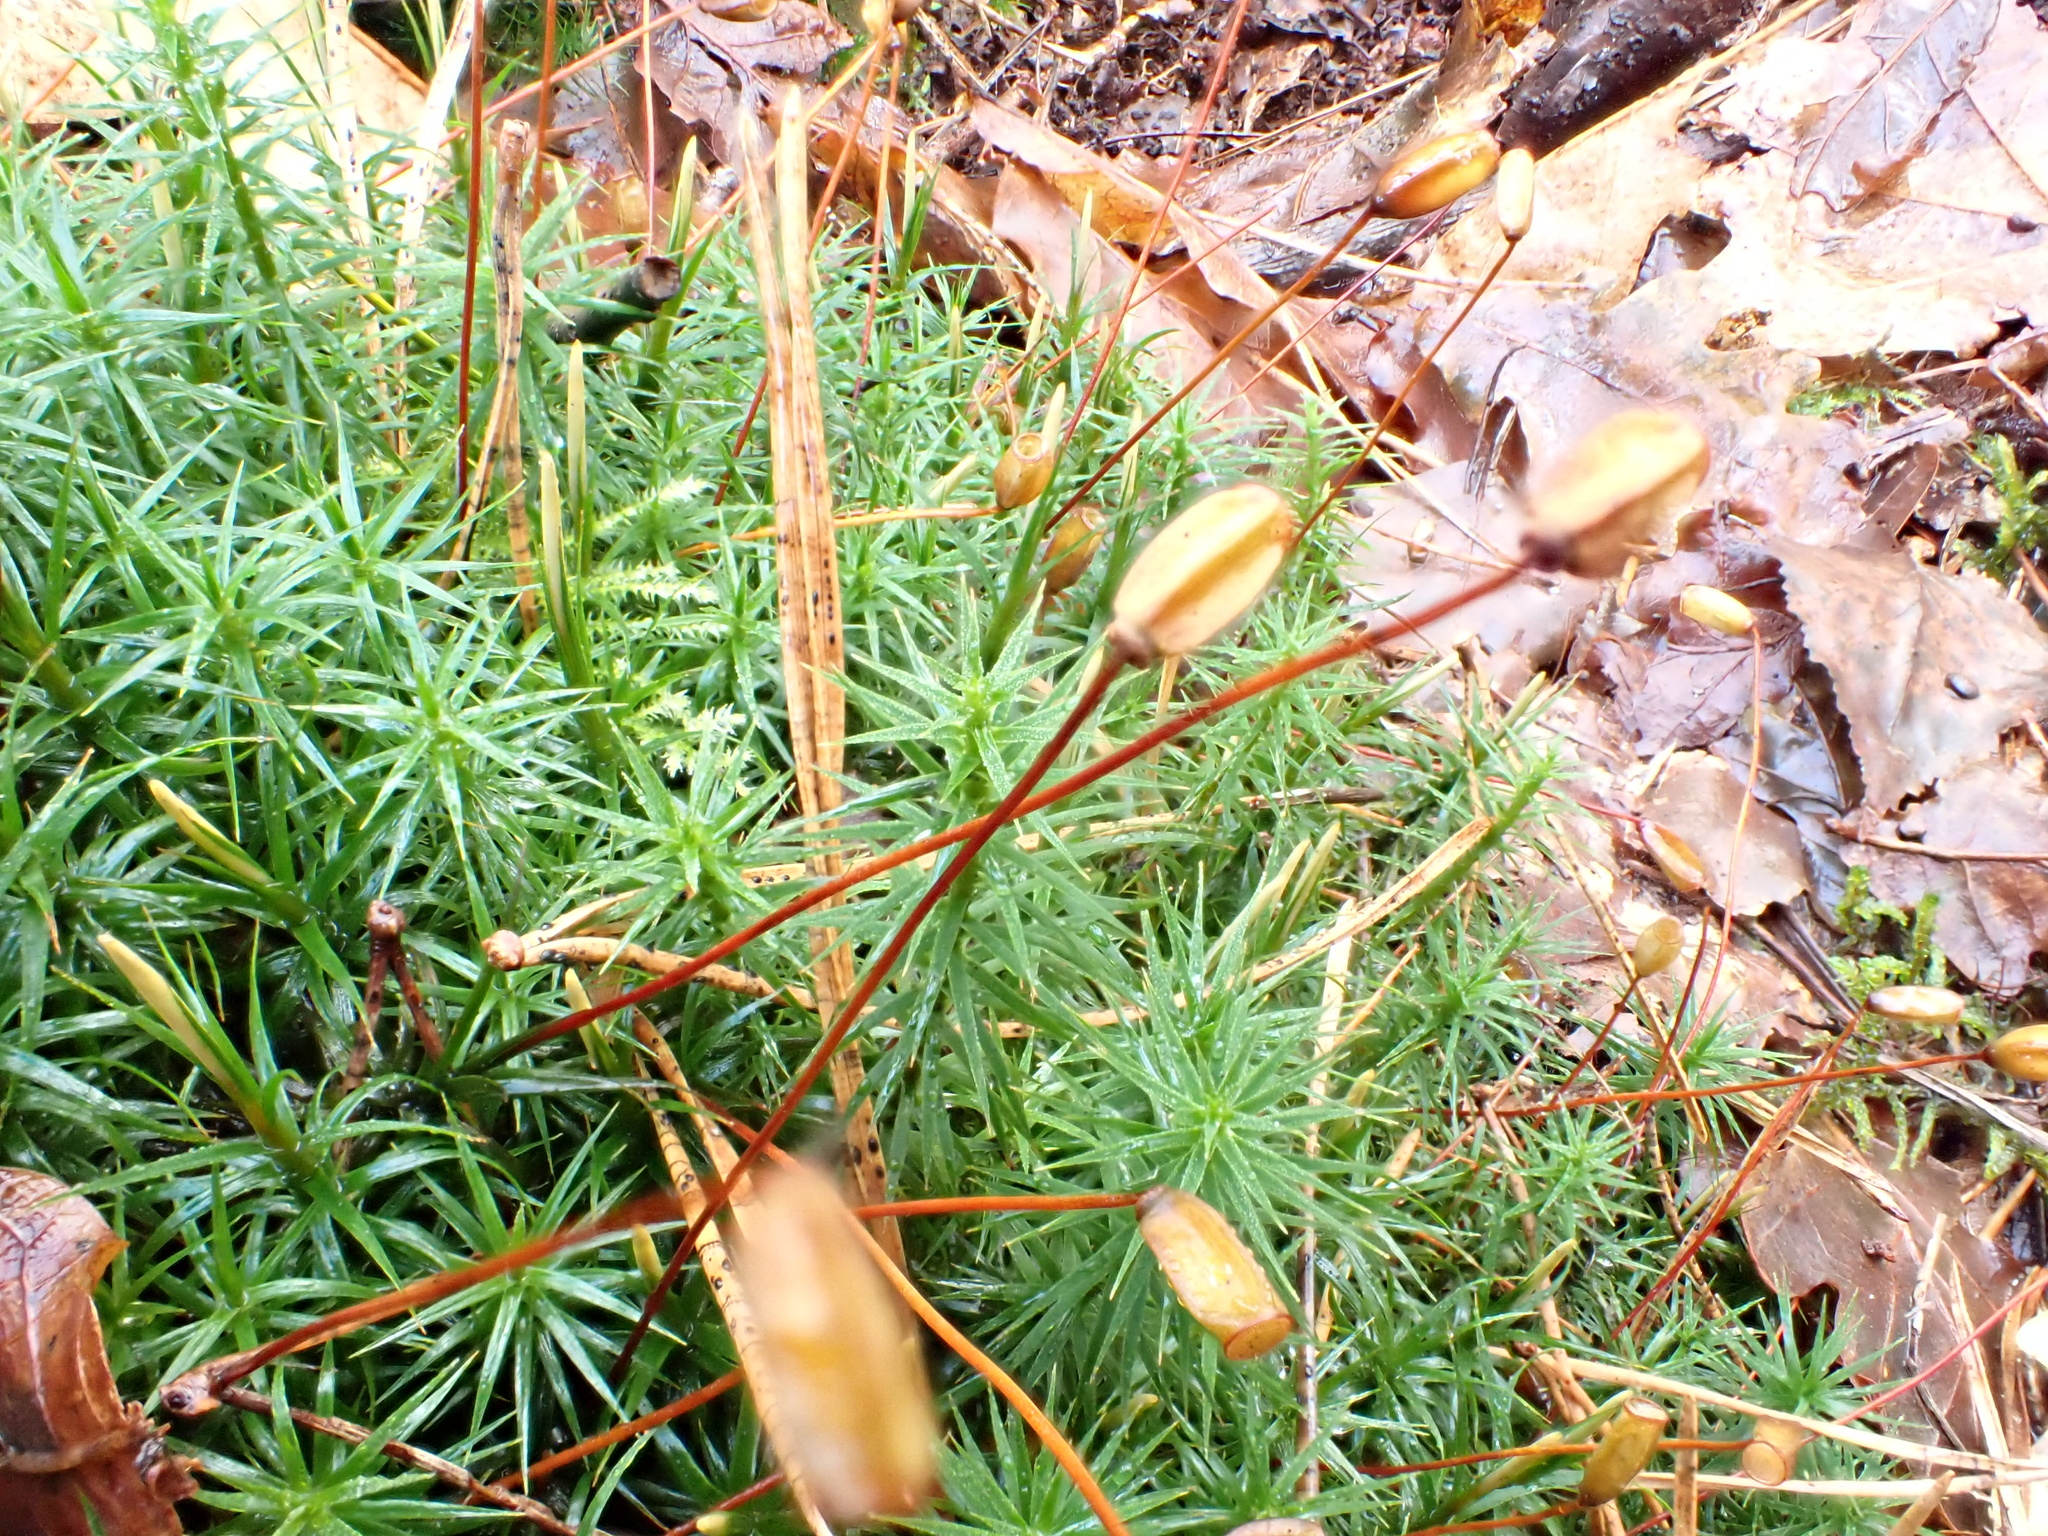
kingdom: Plantae
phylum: Bryophyta
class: Polytrichopsida
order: Polytrichales
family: Polytrichaceae
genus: Polytrichum
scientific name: Polytrichum formosum
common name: Bank haircap moss
